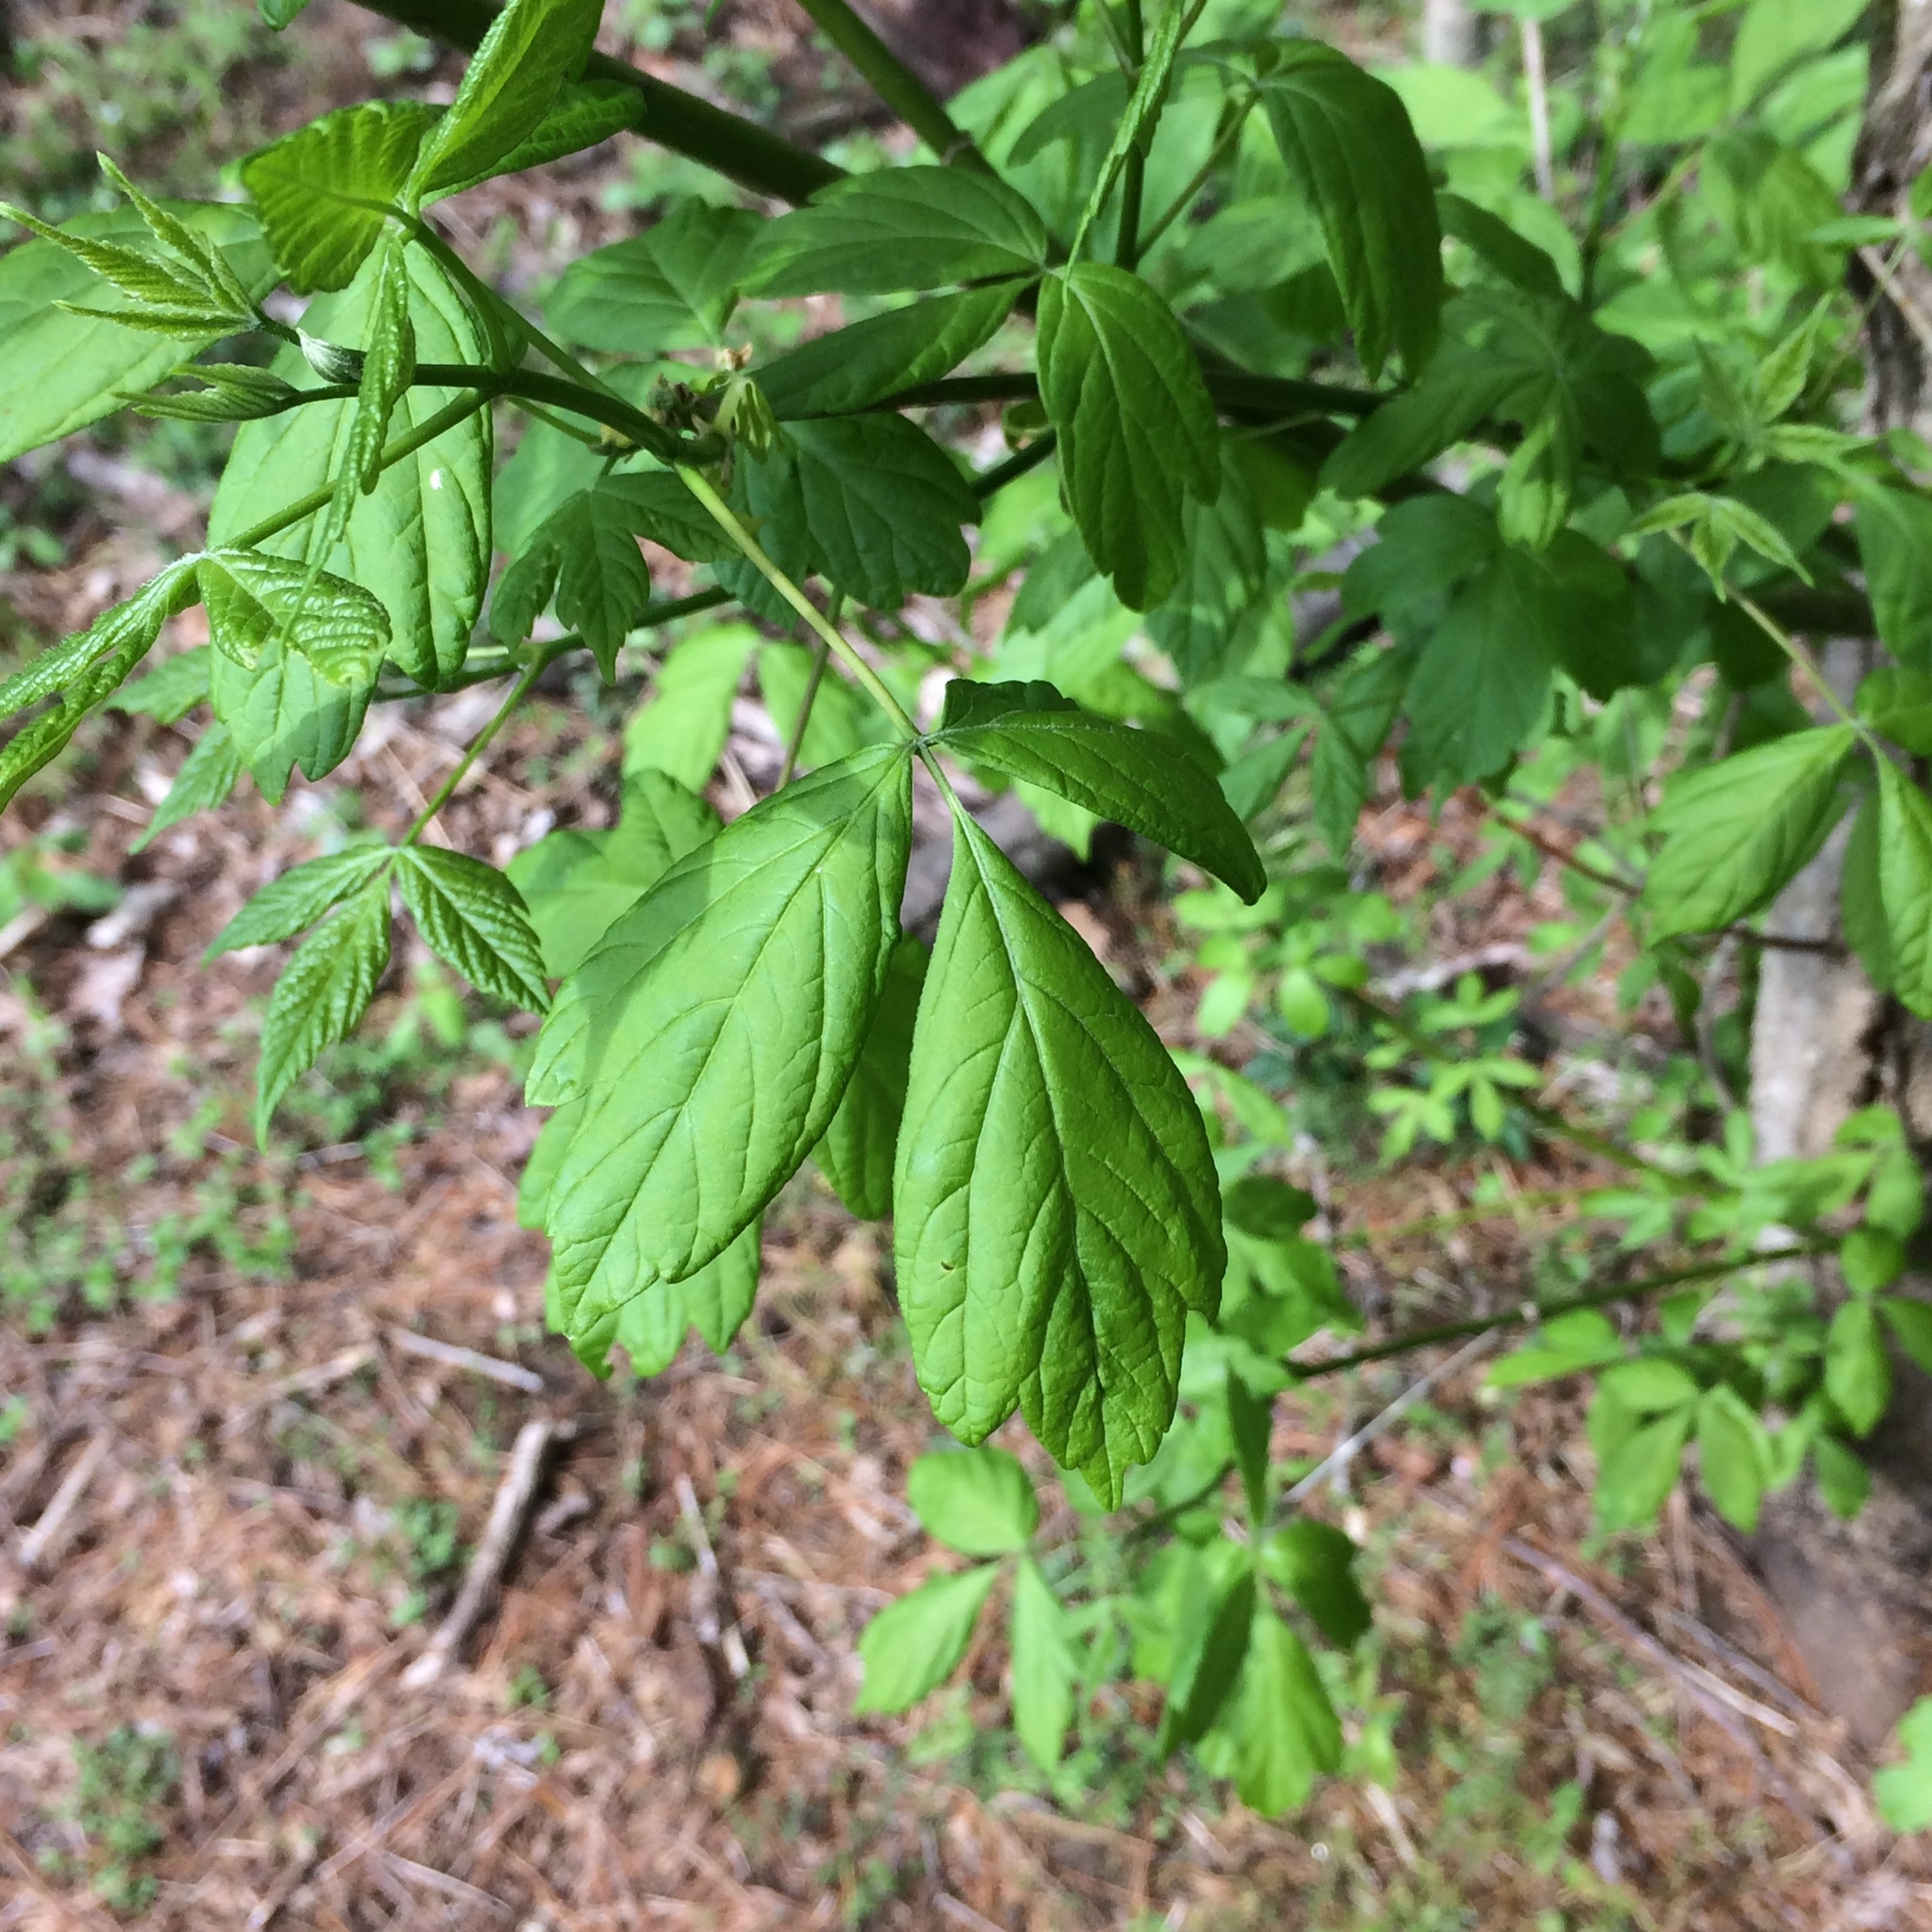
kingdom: Plantae
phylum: Tracheophyta
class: Magnoliopsida
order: Sapindales
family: Sapindaceae
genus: Acer
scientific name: Acer negundo
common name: Ashleaf maple
